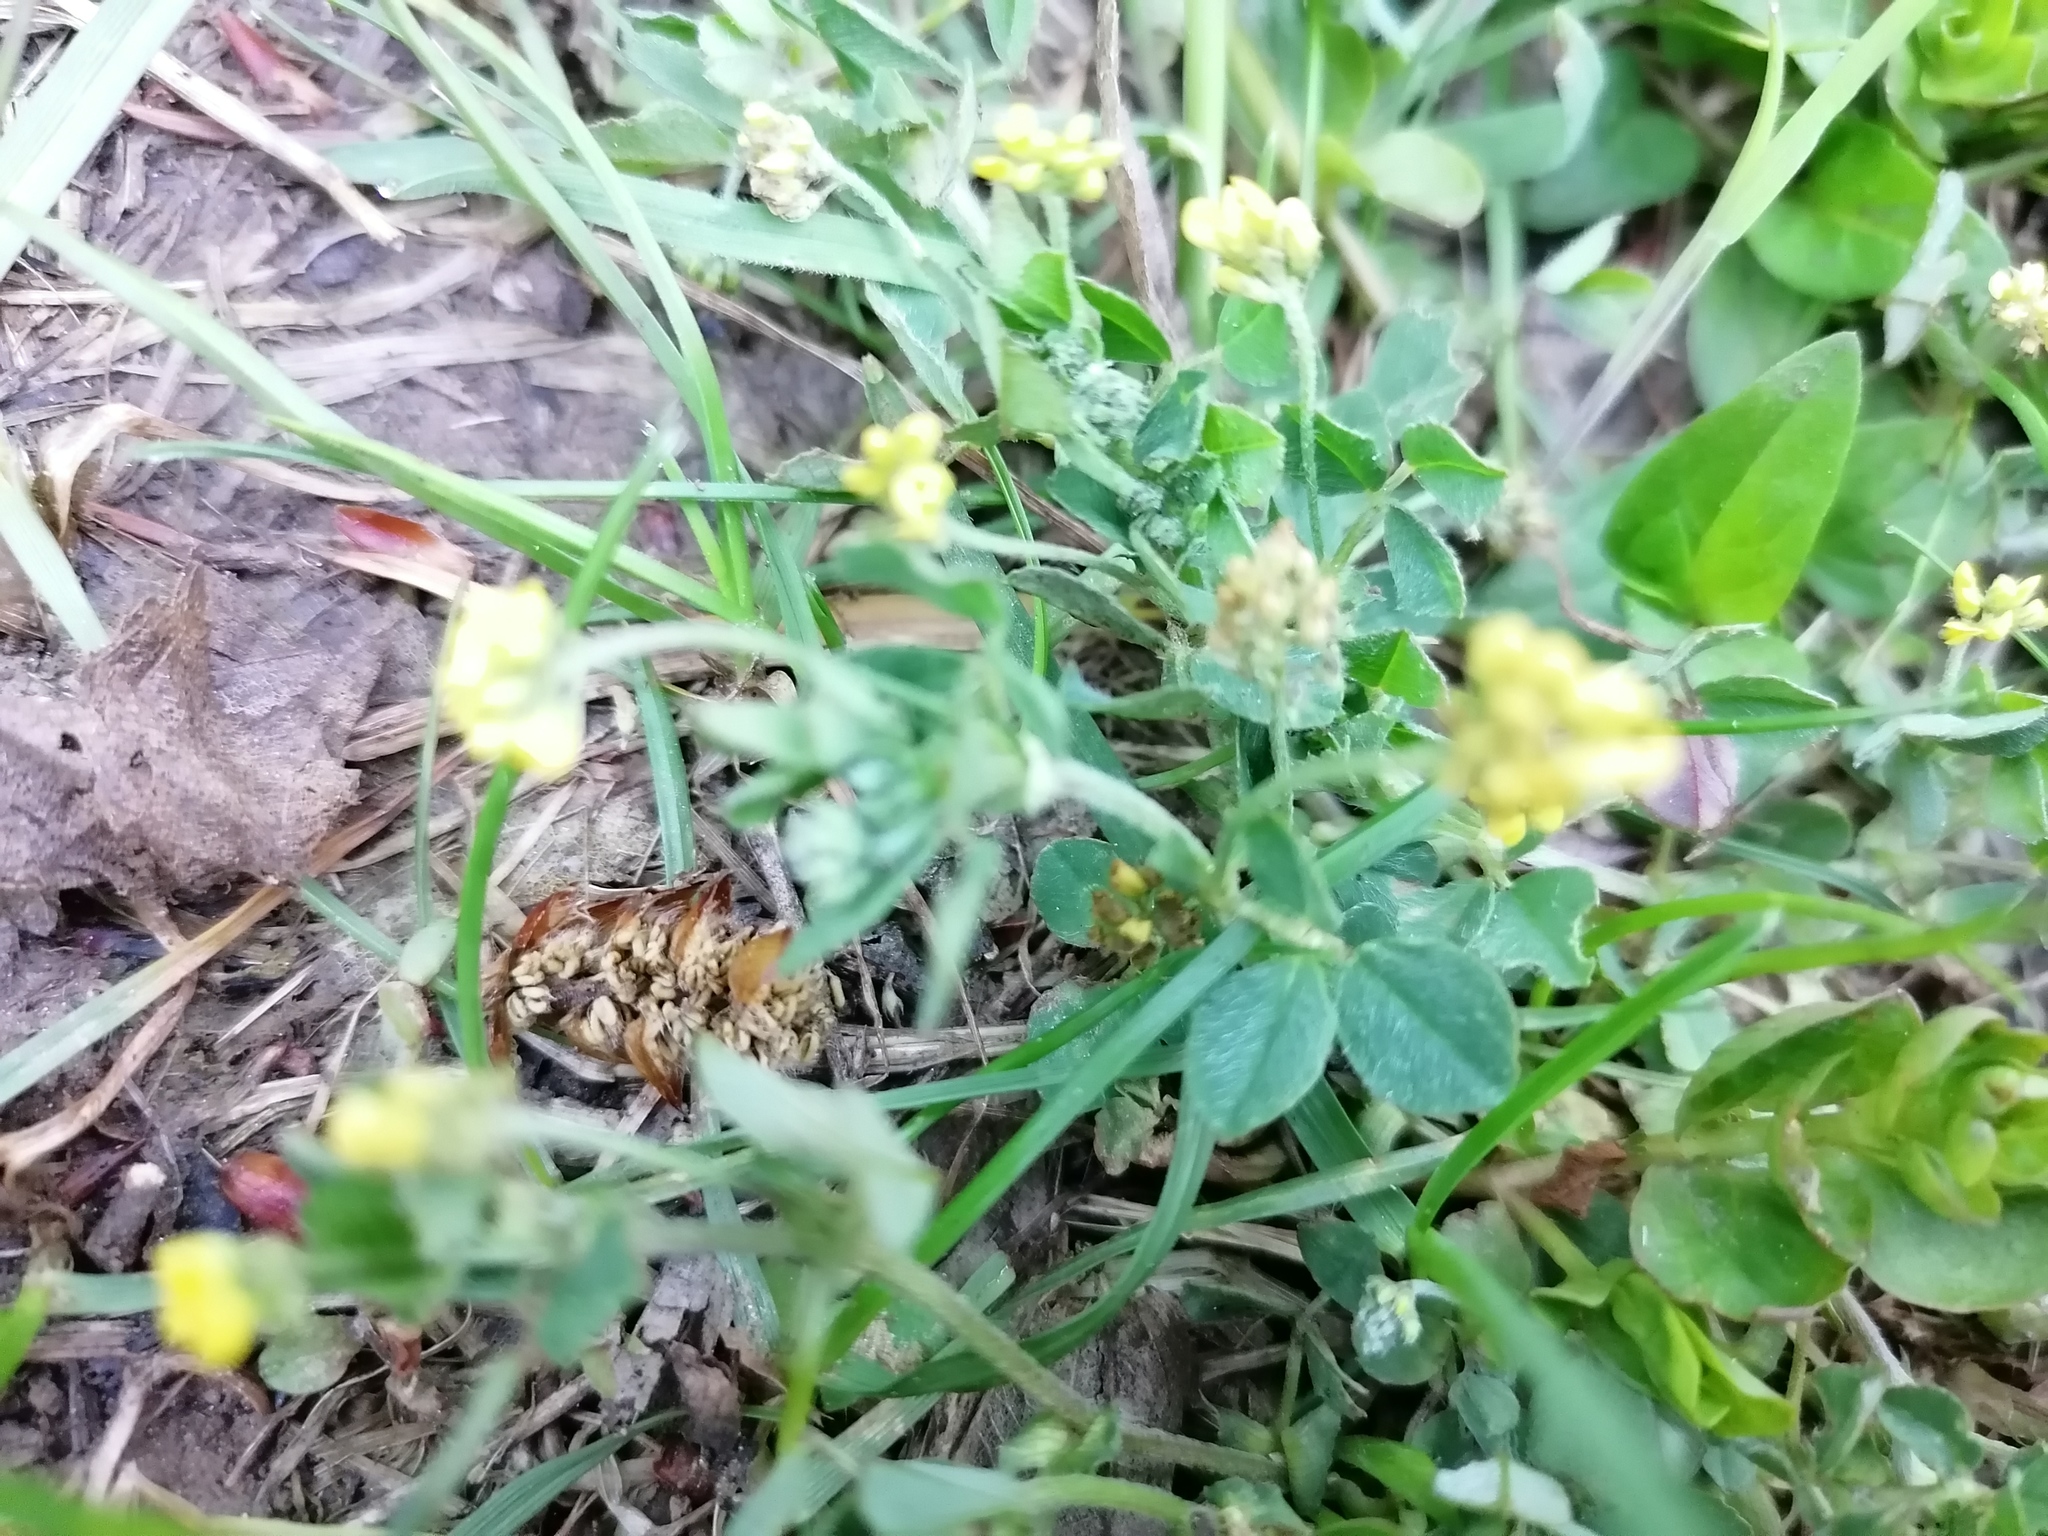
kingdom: Plantae
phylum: Tracheophyta
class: Magnoliopsida
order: Fabales
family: Fabaceae
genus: Medicago
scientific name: Medicago lupulina
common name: Black medick
